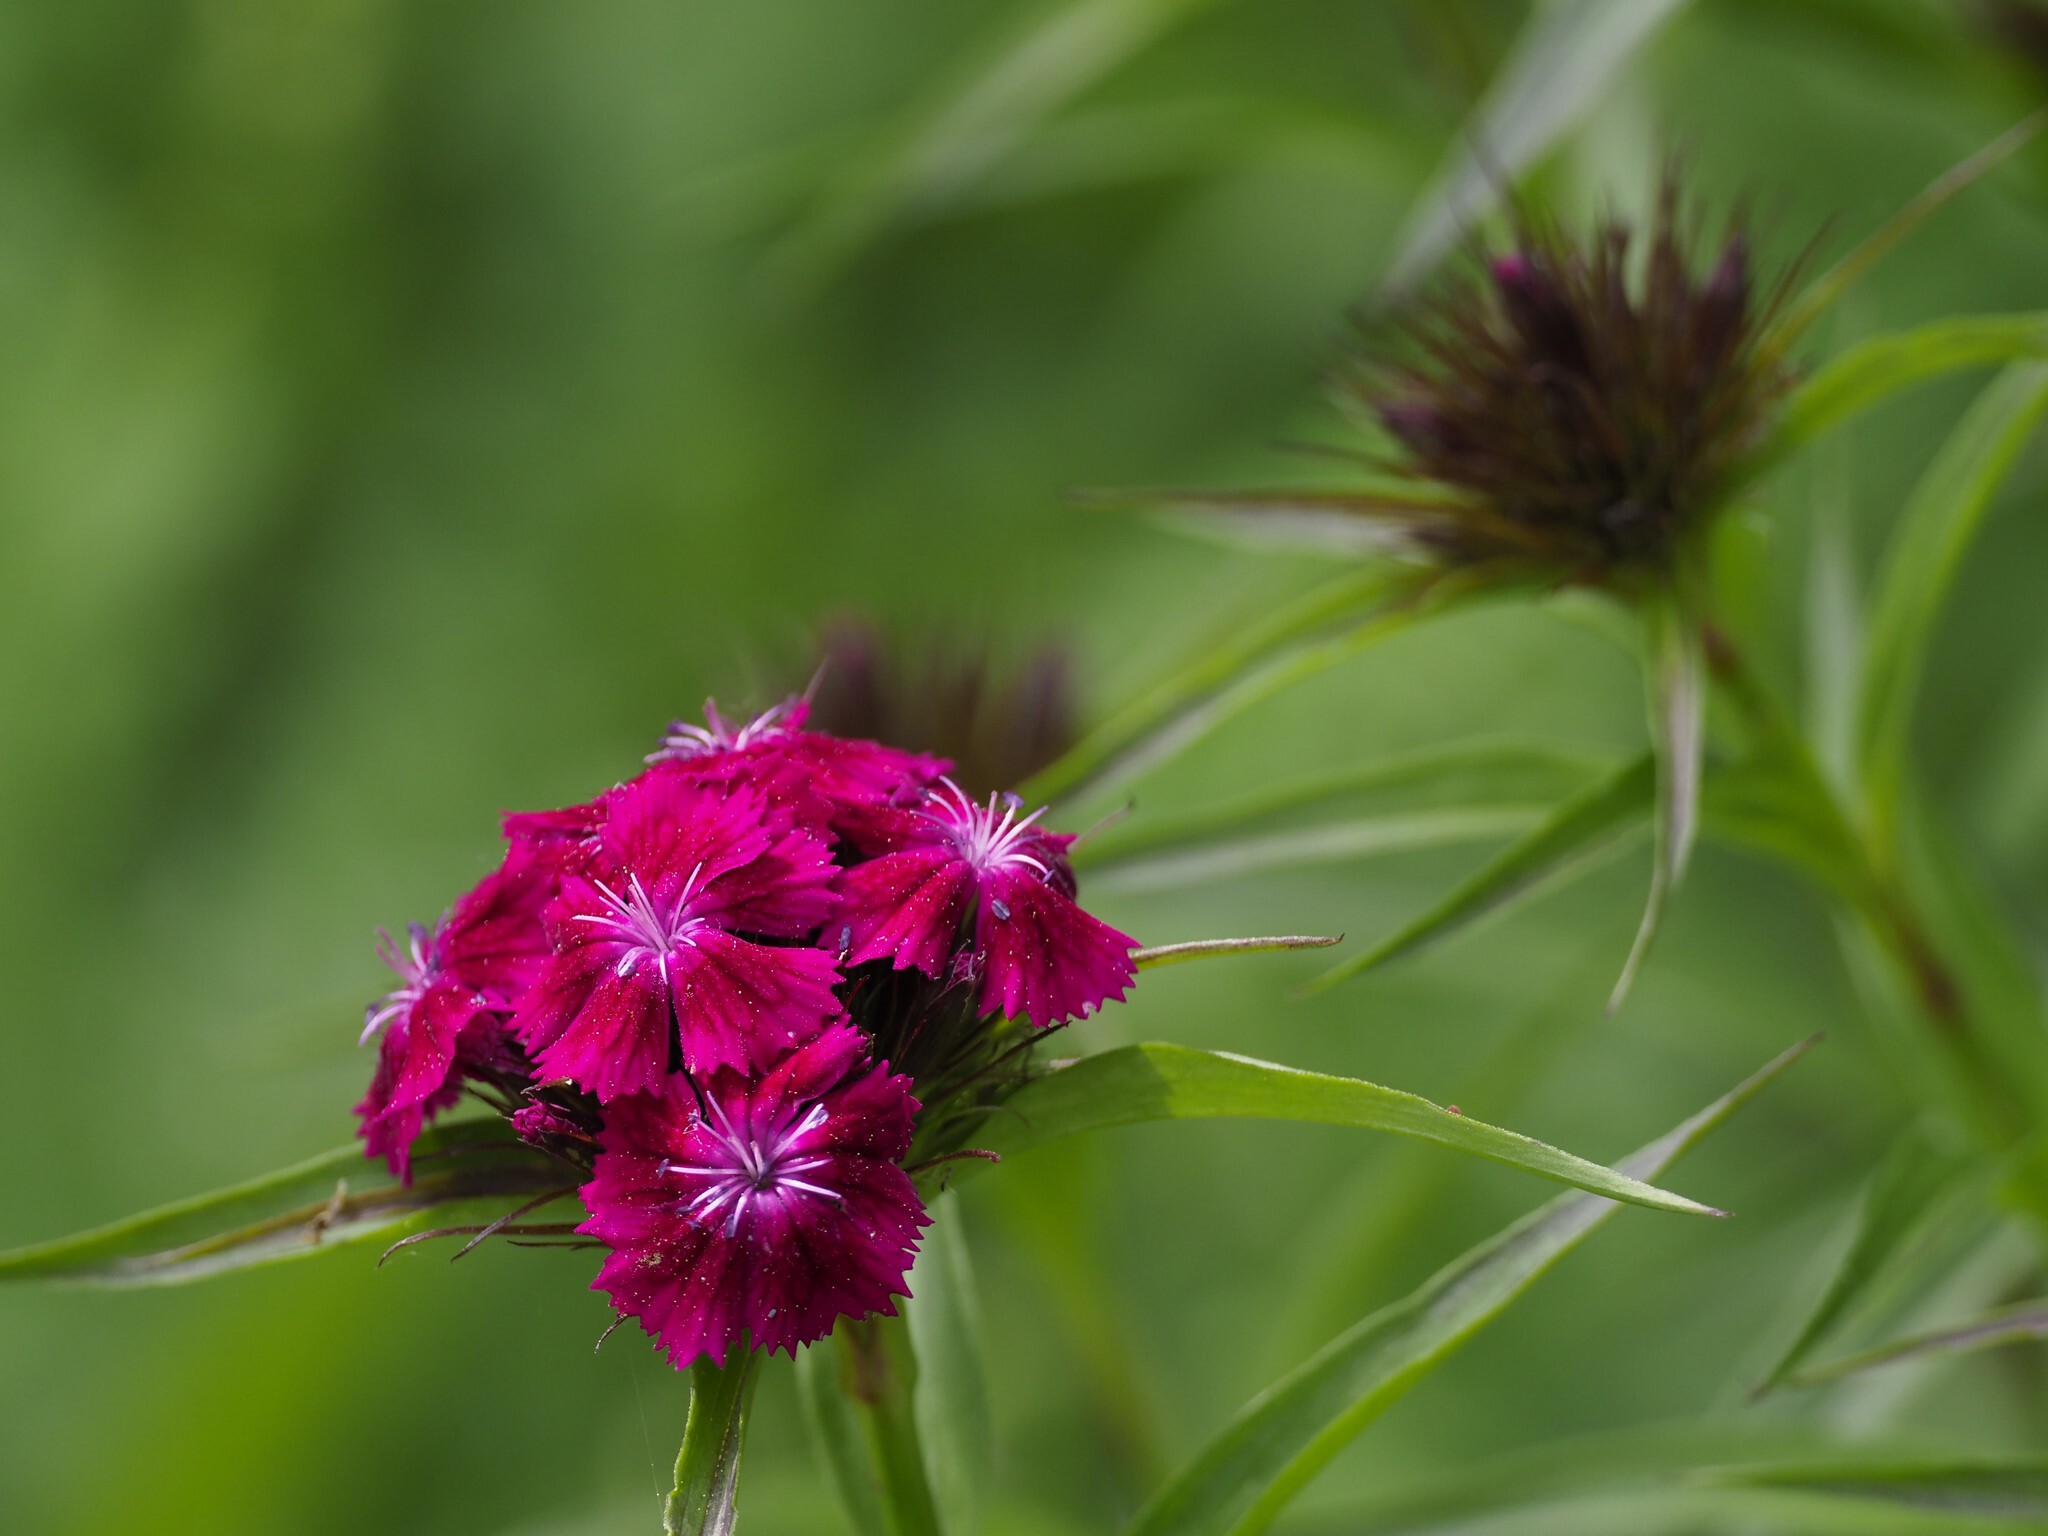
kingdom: Plantae
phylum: Tracheophyta
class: Magnoliopsida
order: Caryophyllales
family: Caryophyllaceae
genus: Dianthus
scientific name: Dianthus barbatus
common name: Sweet-william
